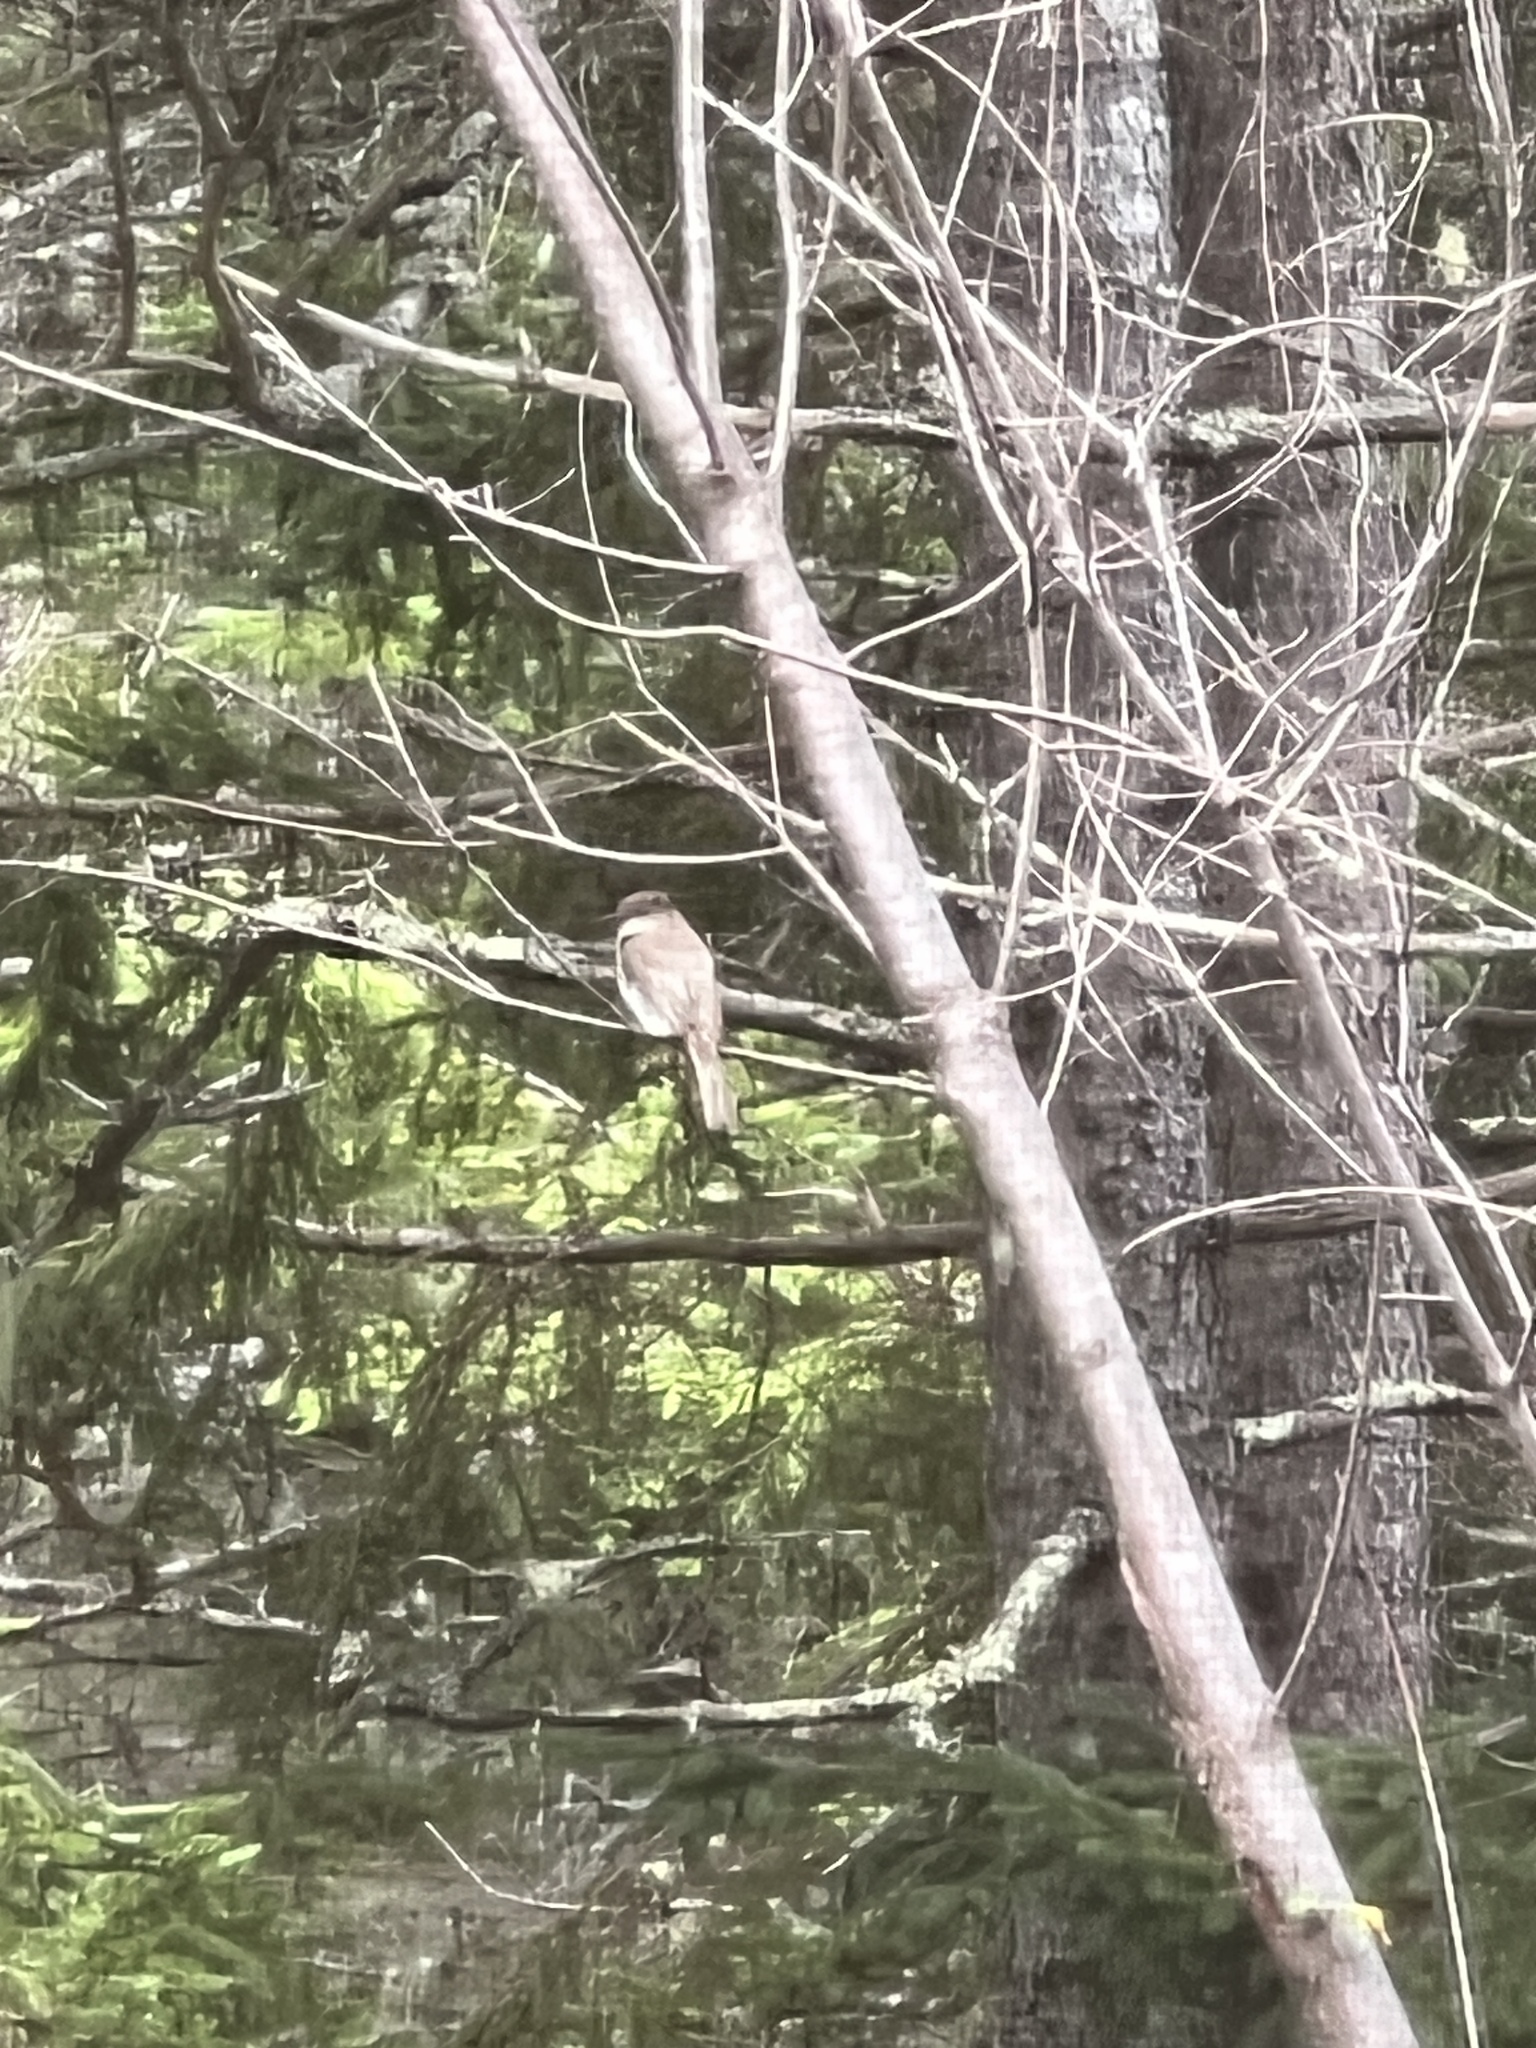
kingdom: Animalia
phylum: Chordata
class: Aves
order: Passeriformes
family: Tyrannidae
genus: Sayornis
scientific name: Sayornis phoebe
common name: Eastern phoebe
